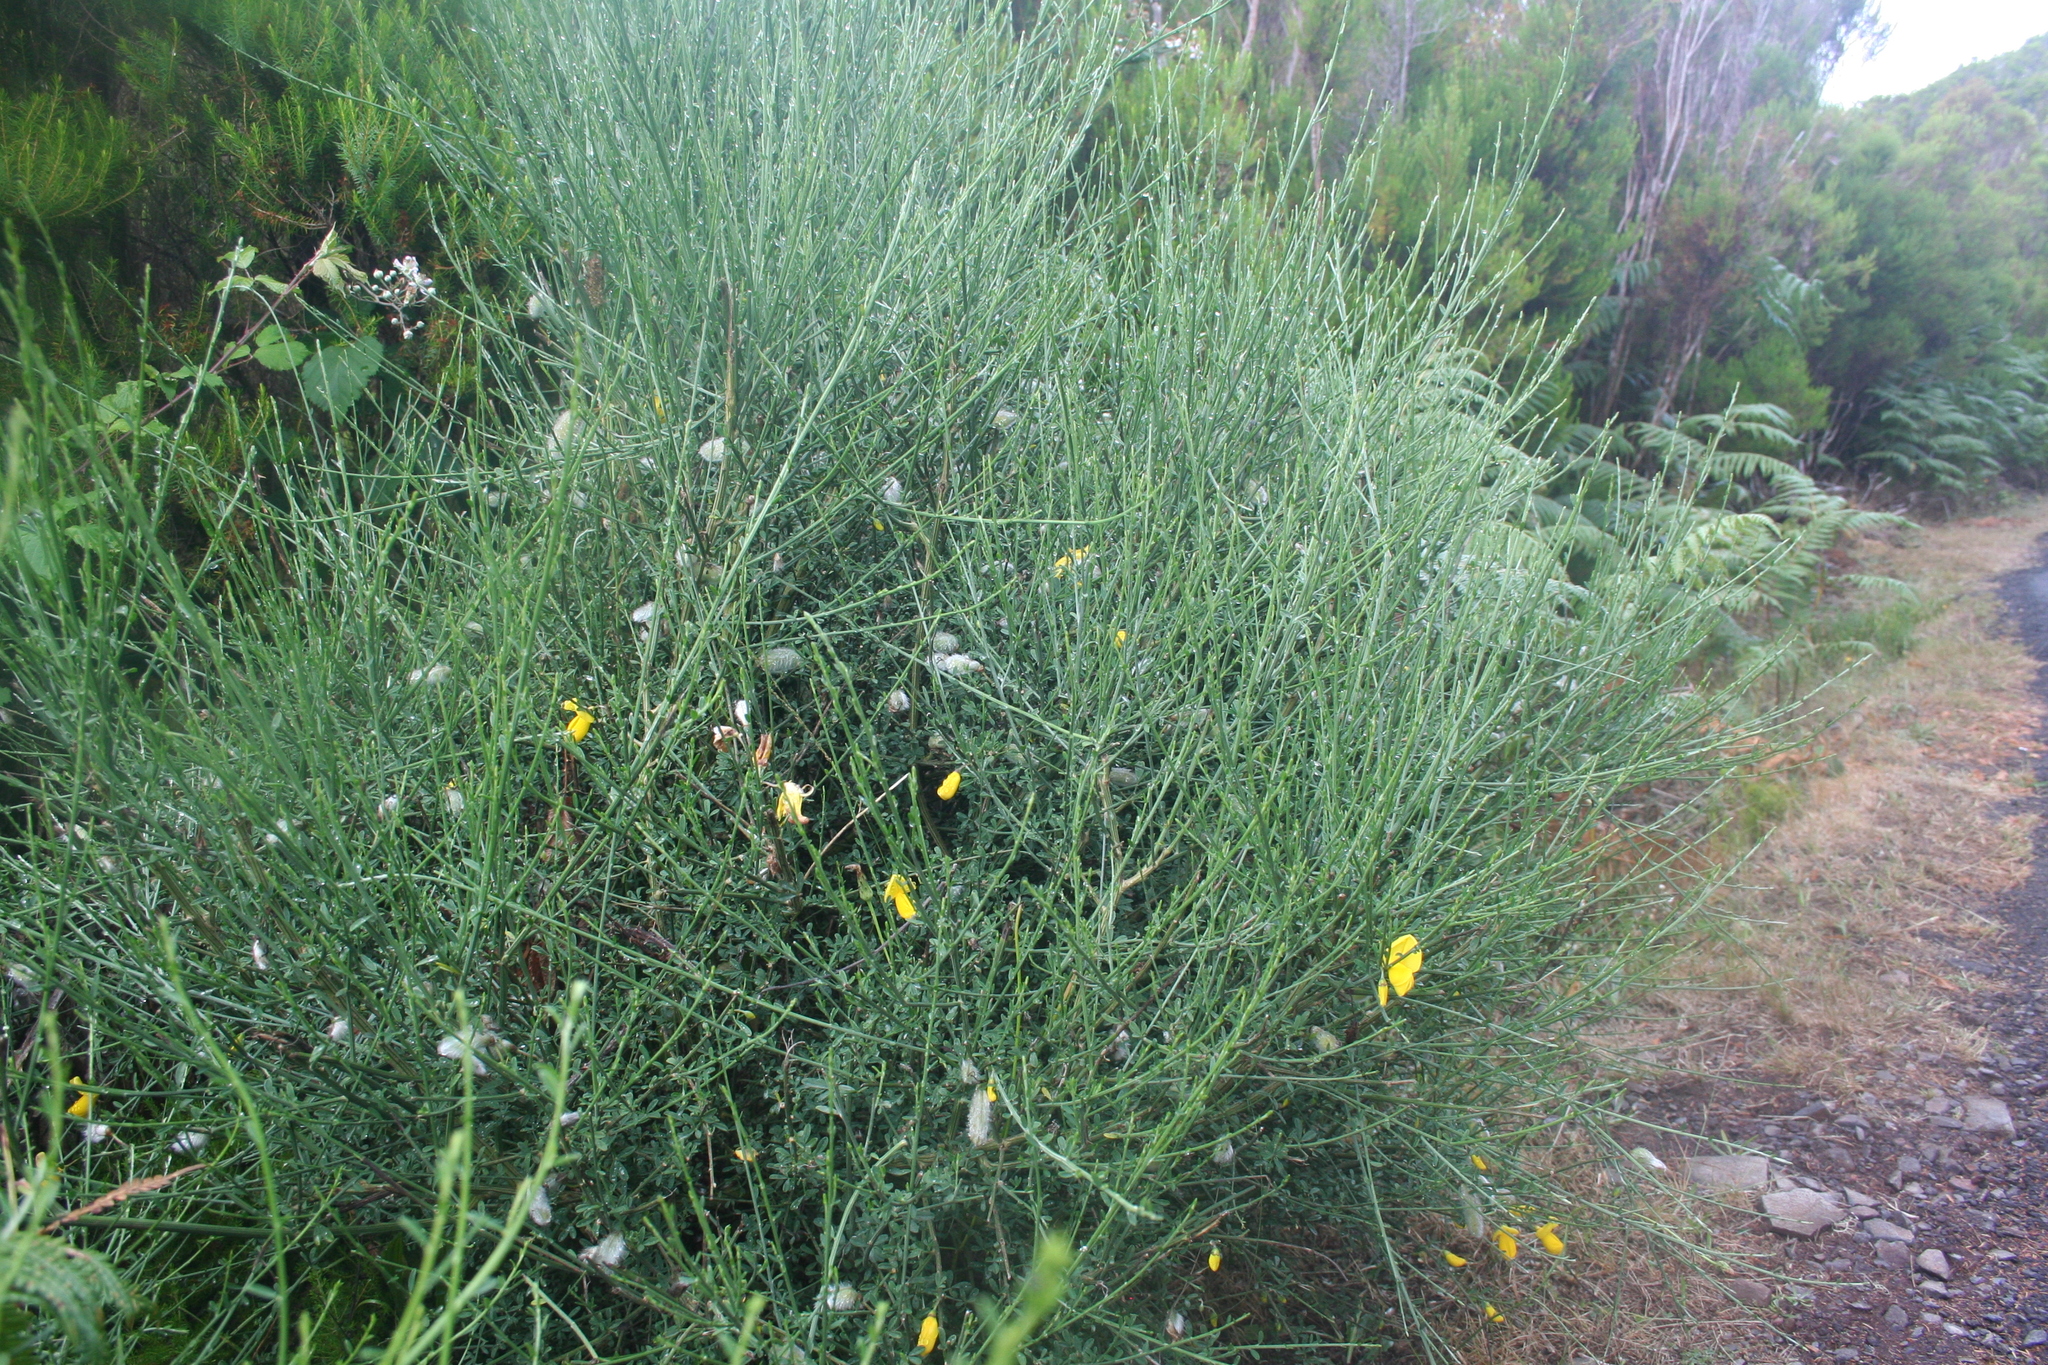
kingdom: Plantae
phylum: Tracheophyta
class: Magnoliopsida
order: Fabales
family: Fabaceae
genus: Cytisus
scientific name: Cytisus scoparius
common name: Scotch broom
